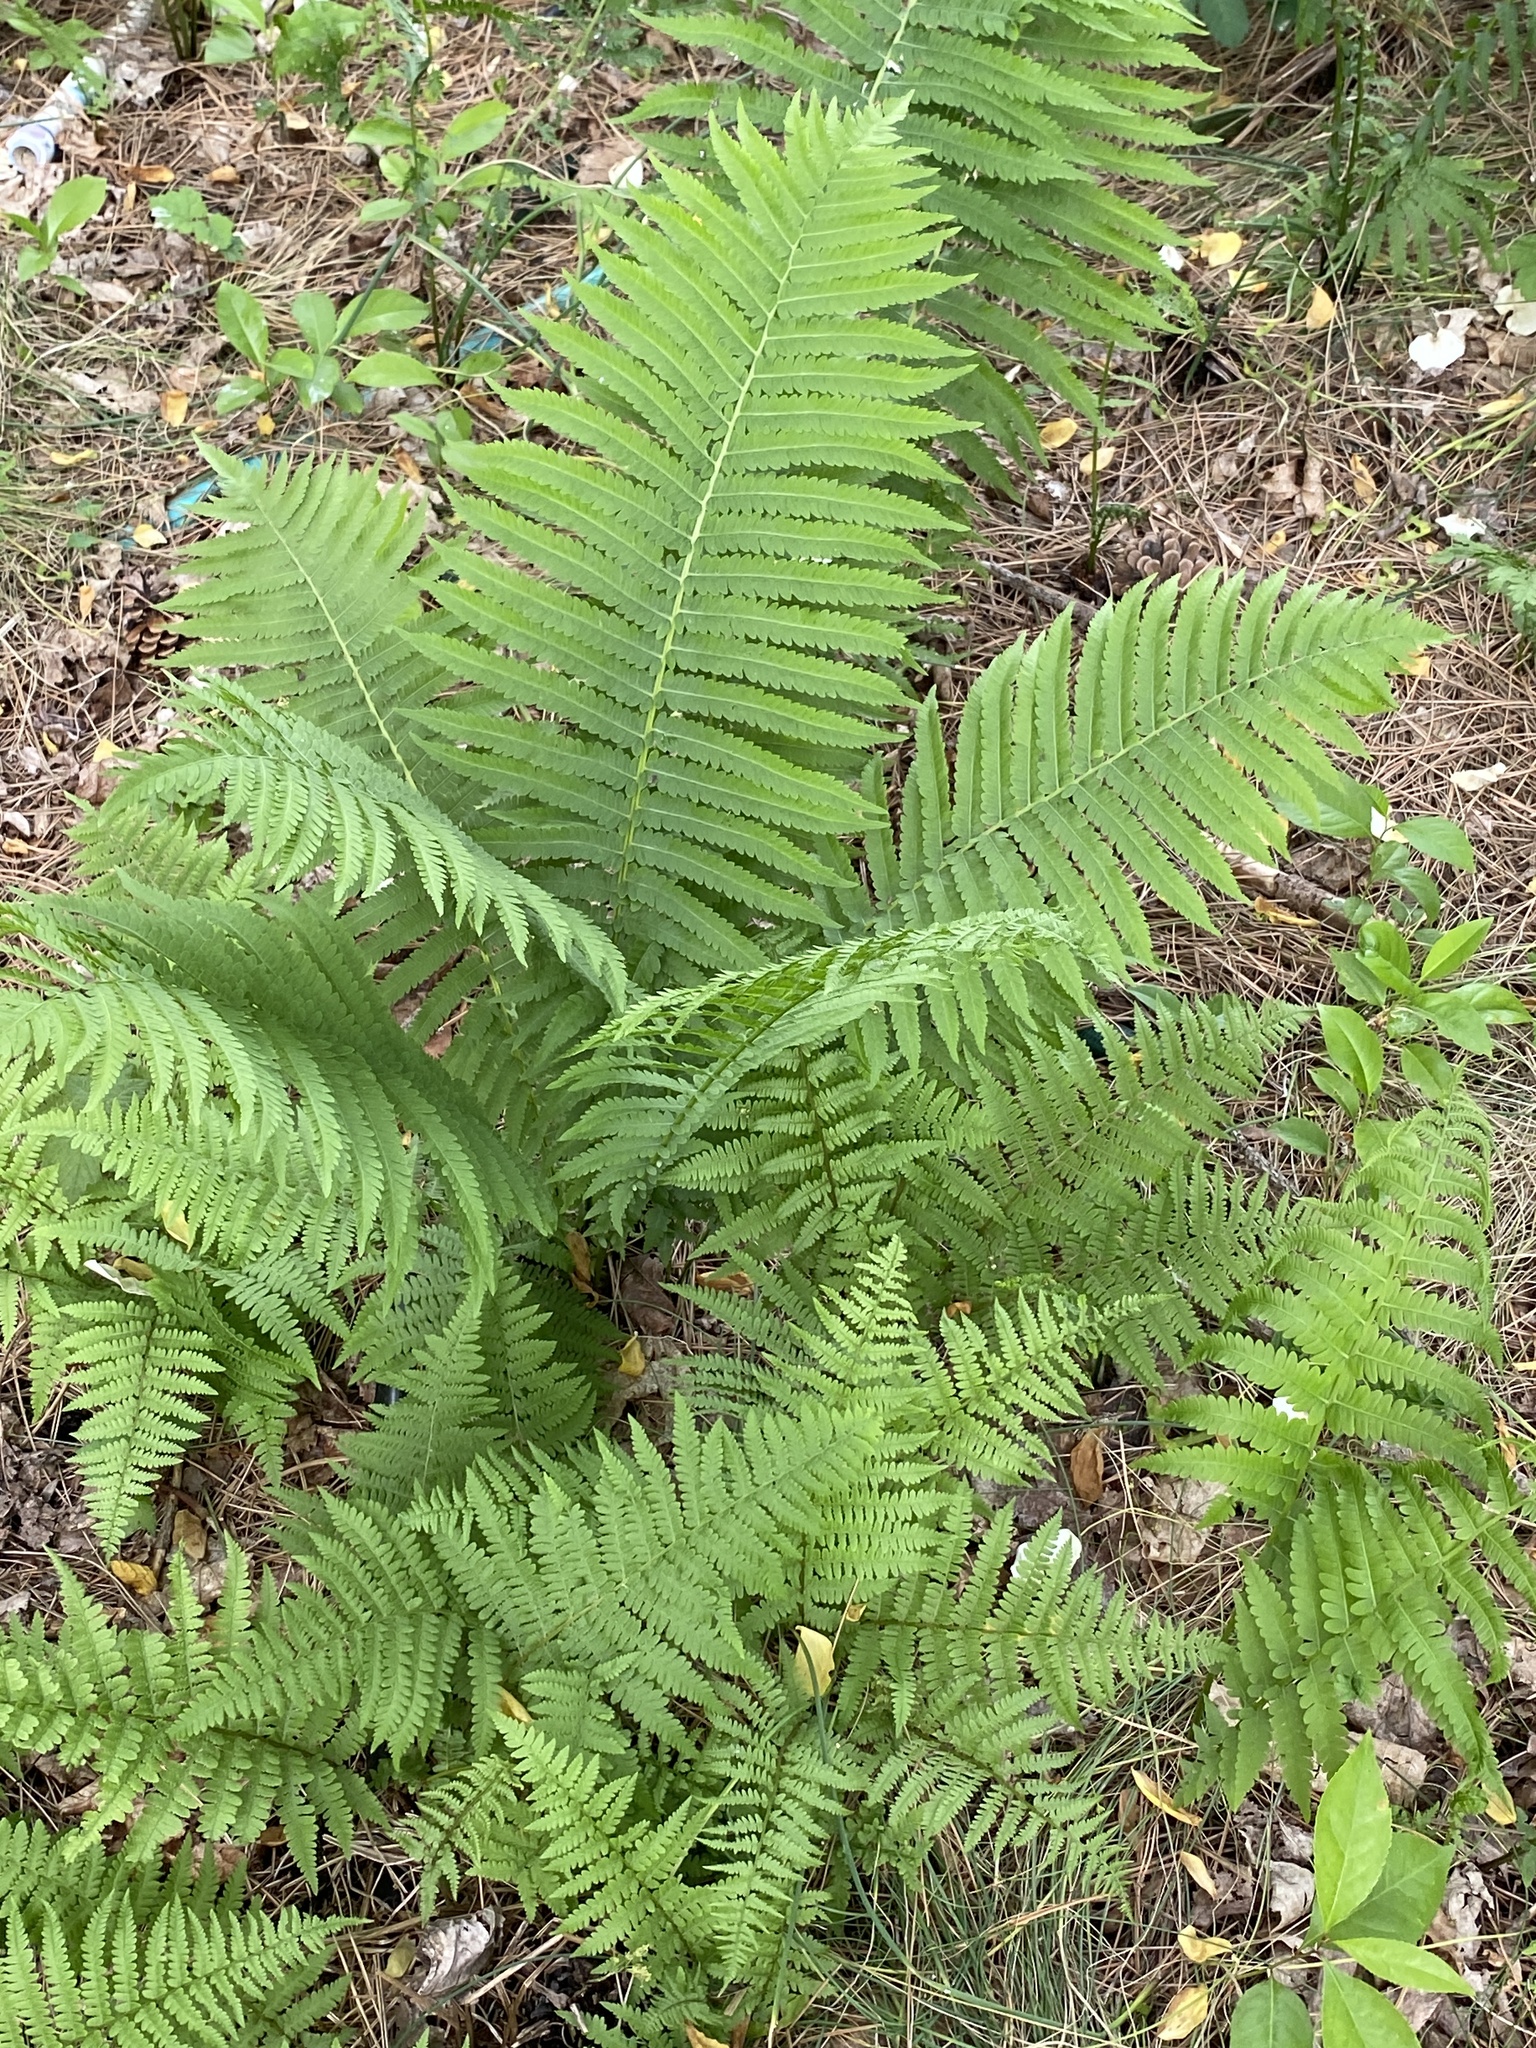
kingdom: Plantae
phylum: Tracheophyta
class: Polypodiopsida
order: Polypodiales
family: Onocleaceae
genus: Matteuccia
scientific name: Matteuccia struthiopteris
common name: Ostrich fern
